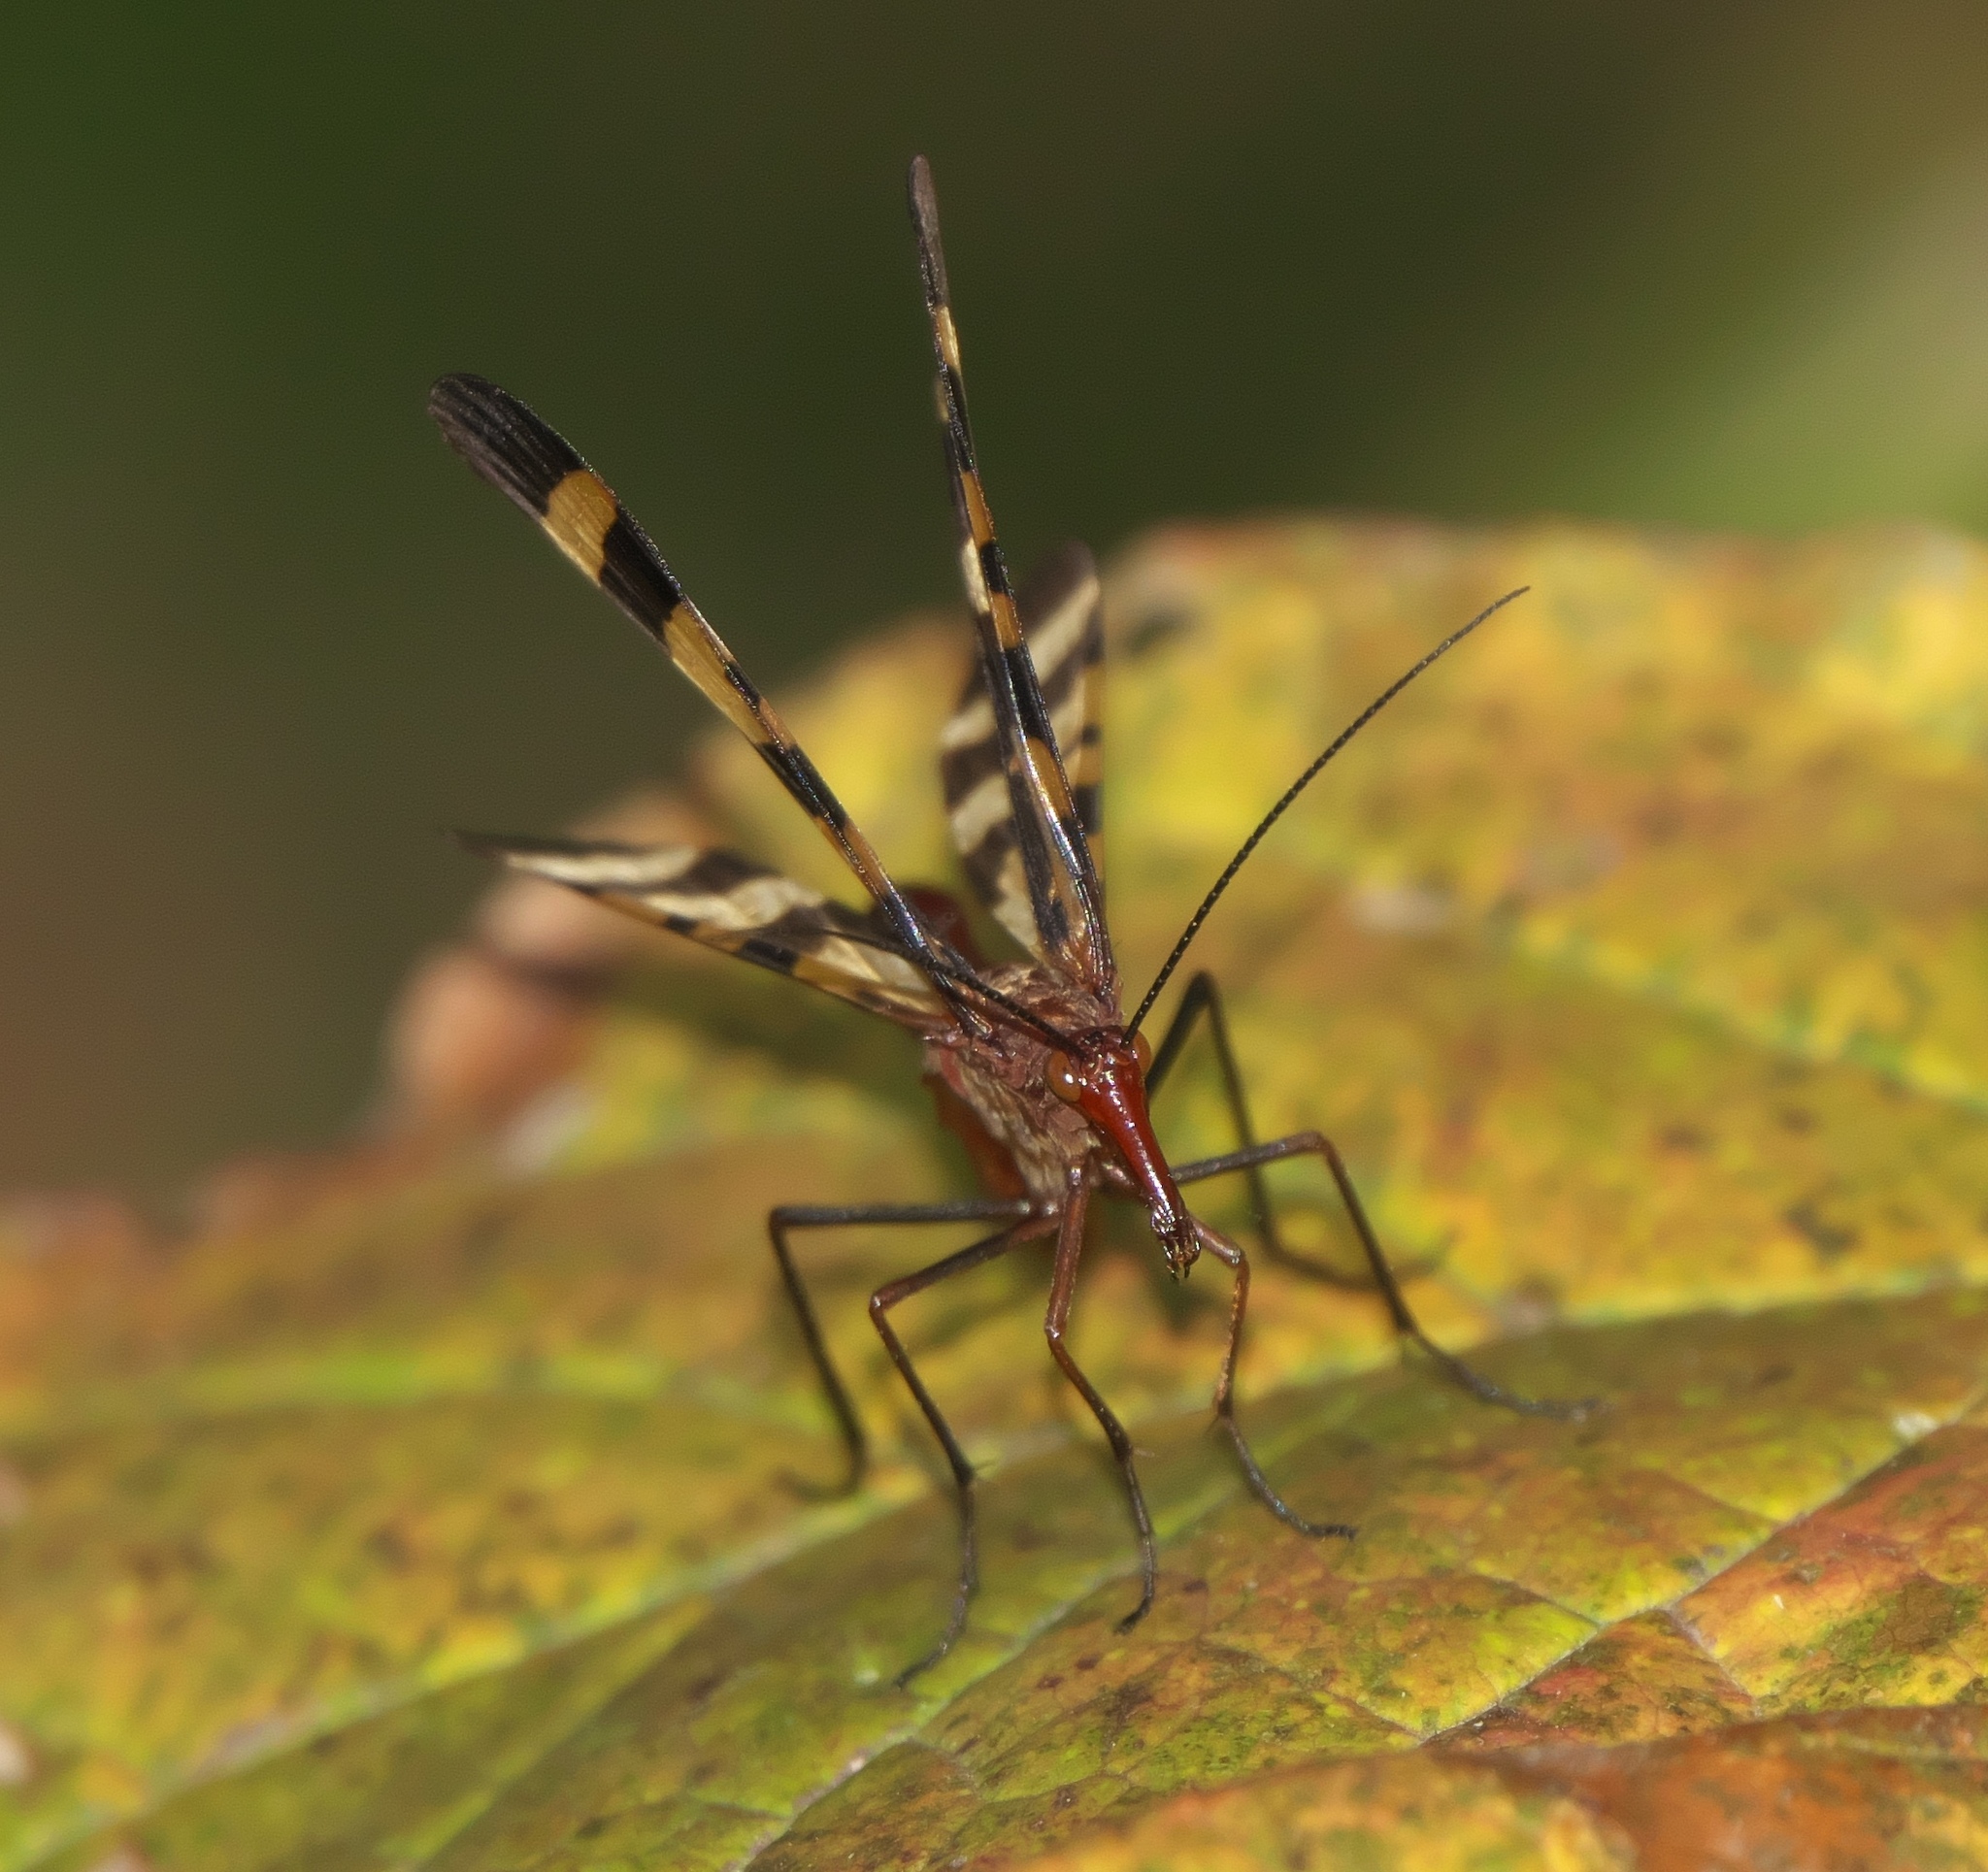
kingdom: Animalia
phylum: Arthropoda
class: Insecta
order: Mecoptera
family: Panorpidae
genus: Panorpa
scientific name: Panorpa nuptialis
